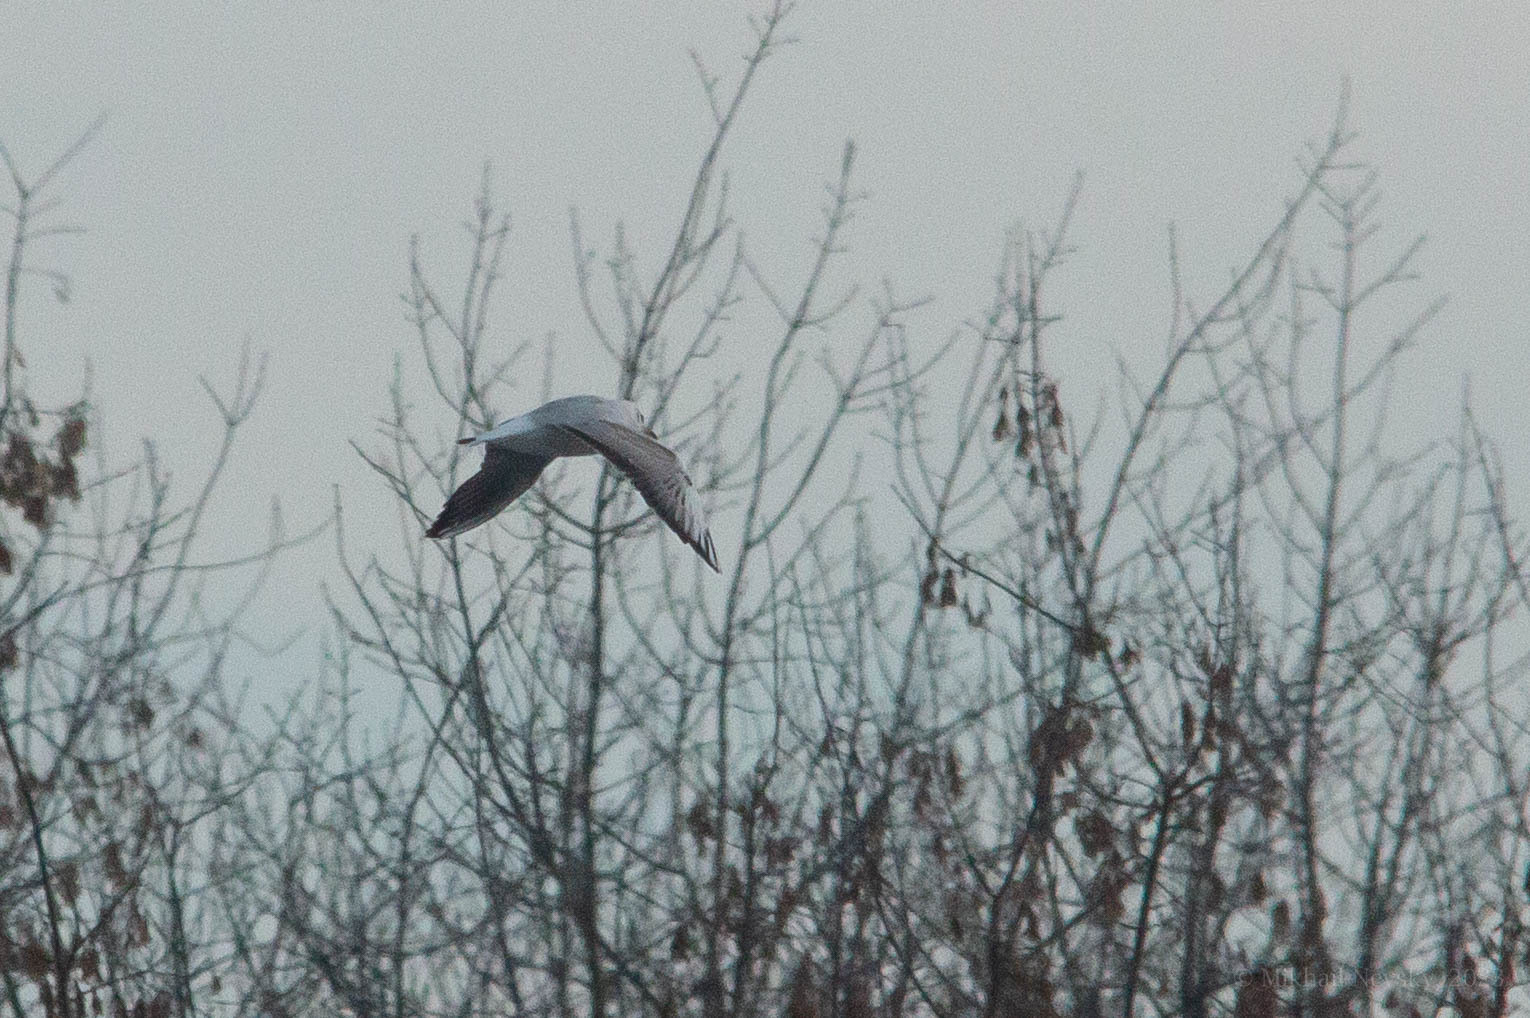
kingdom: Animalia
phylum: Chordata
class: Aves
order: Charadriiformes
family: Laridae
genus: Chroicocephalus
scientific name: Chroicocephalus ridibundus
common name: Black-headed gull
